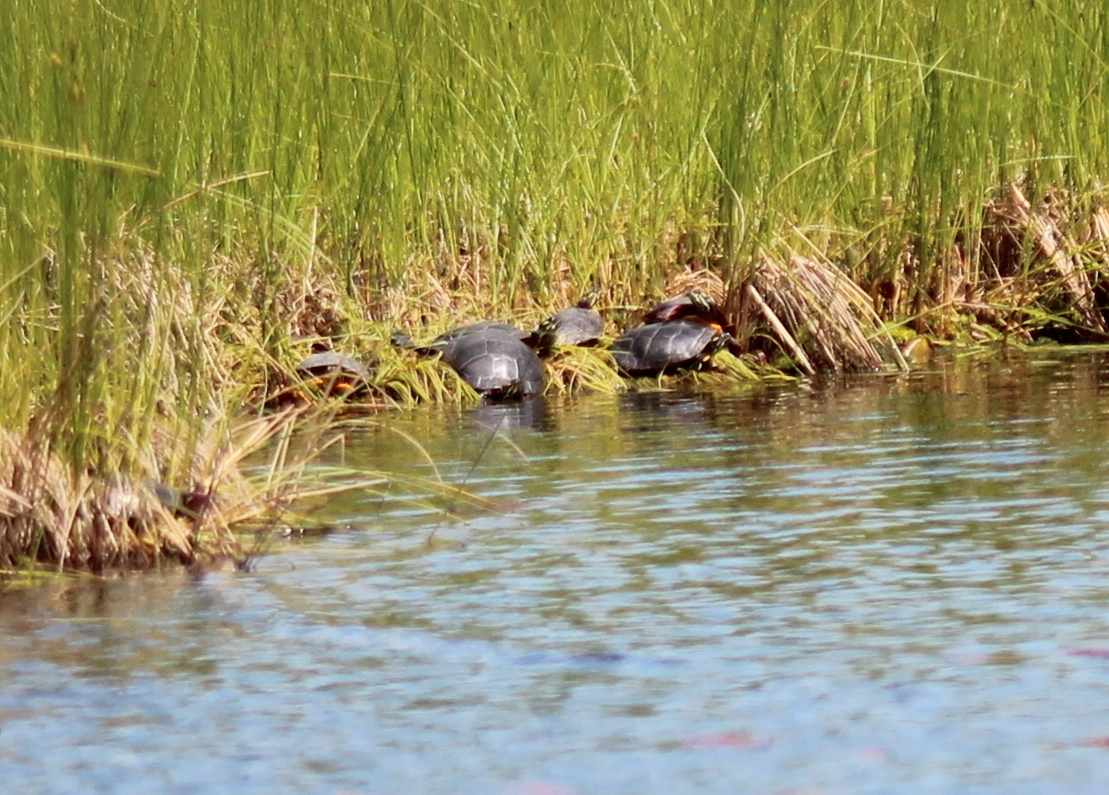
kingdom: Animalia
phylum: Chordata
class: Testudines
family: Emydidae
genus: Chrysemys
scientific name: Chrysemys picta
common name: Painted turtle
